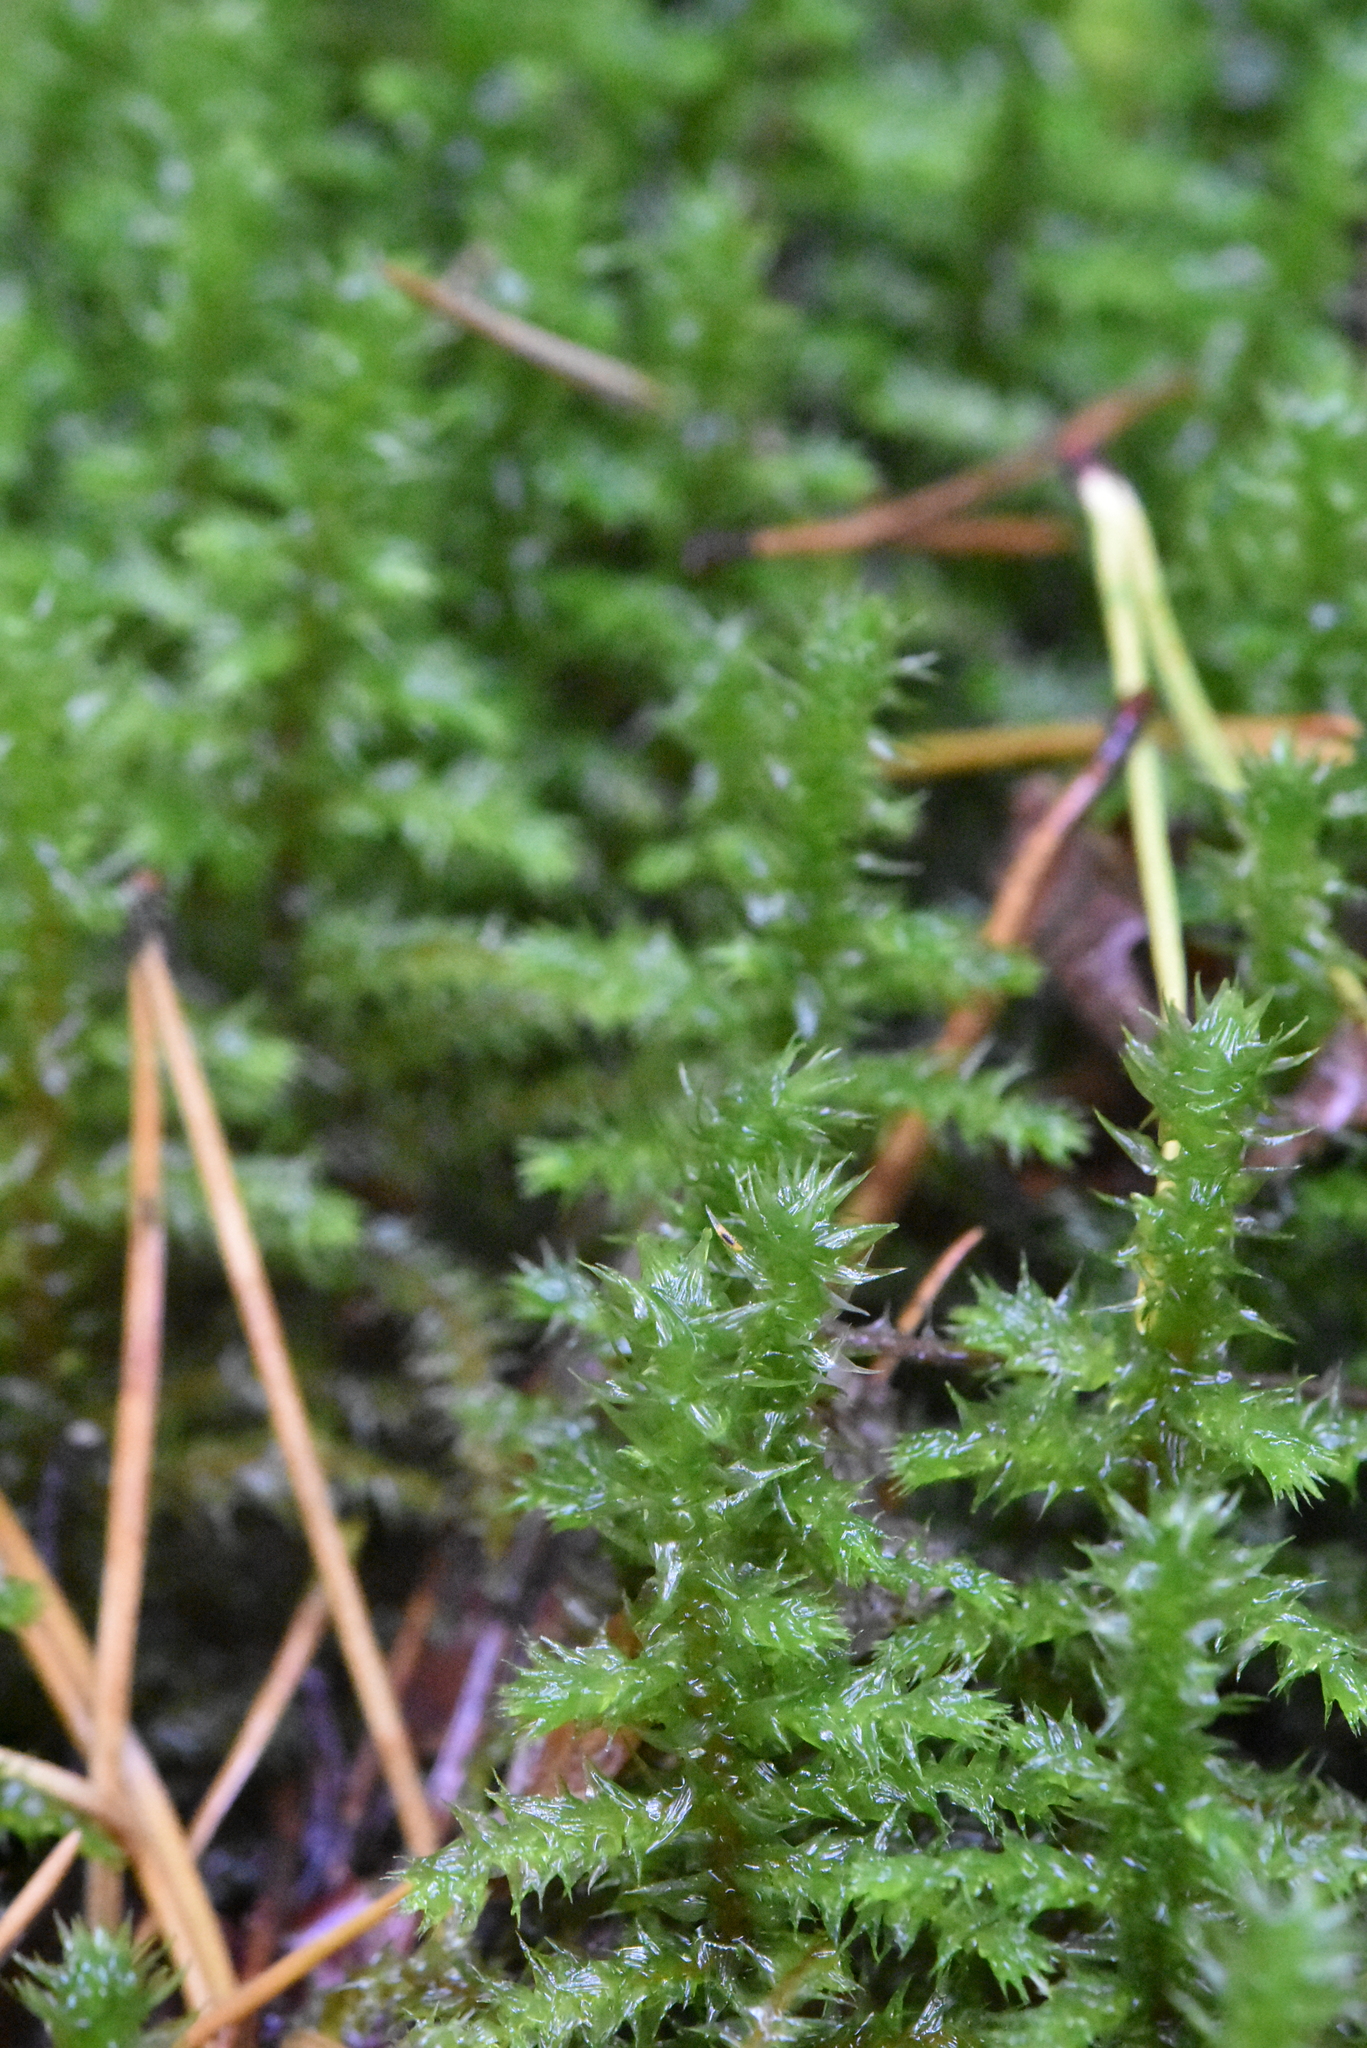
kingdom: Plantae
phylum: Bryophyta
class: Bryopsida
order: Hypnales
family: Hylocomiaceae
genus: Hylocomiadelphus
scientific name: Hylocomiadelphus triquetrus
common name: Rough goose neck moss
